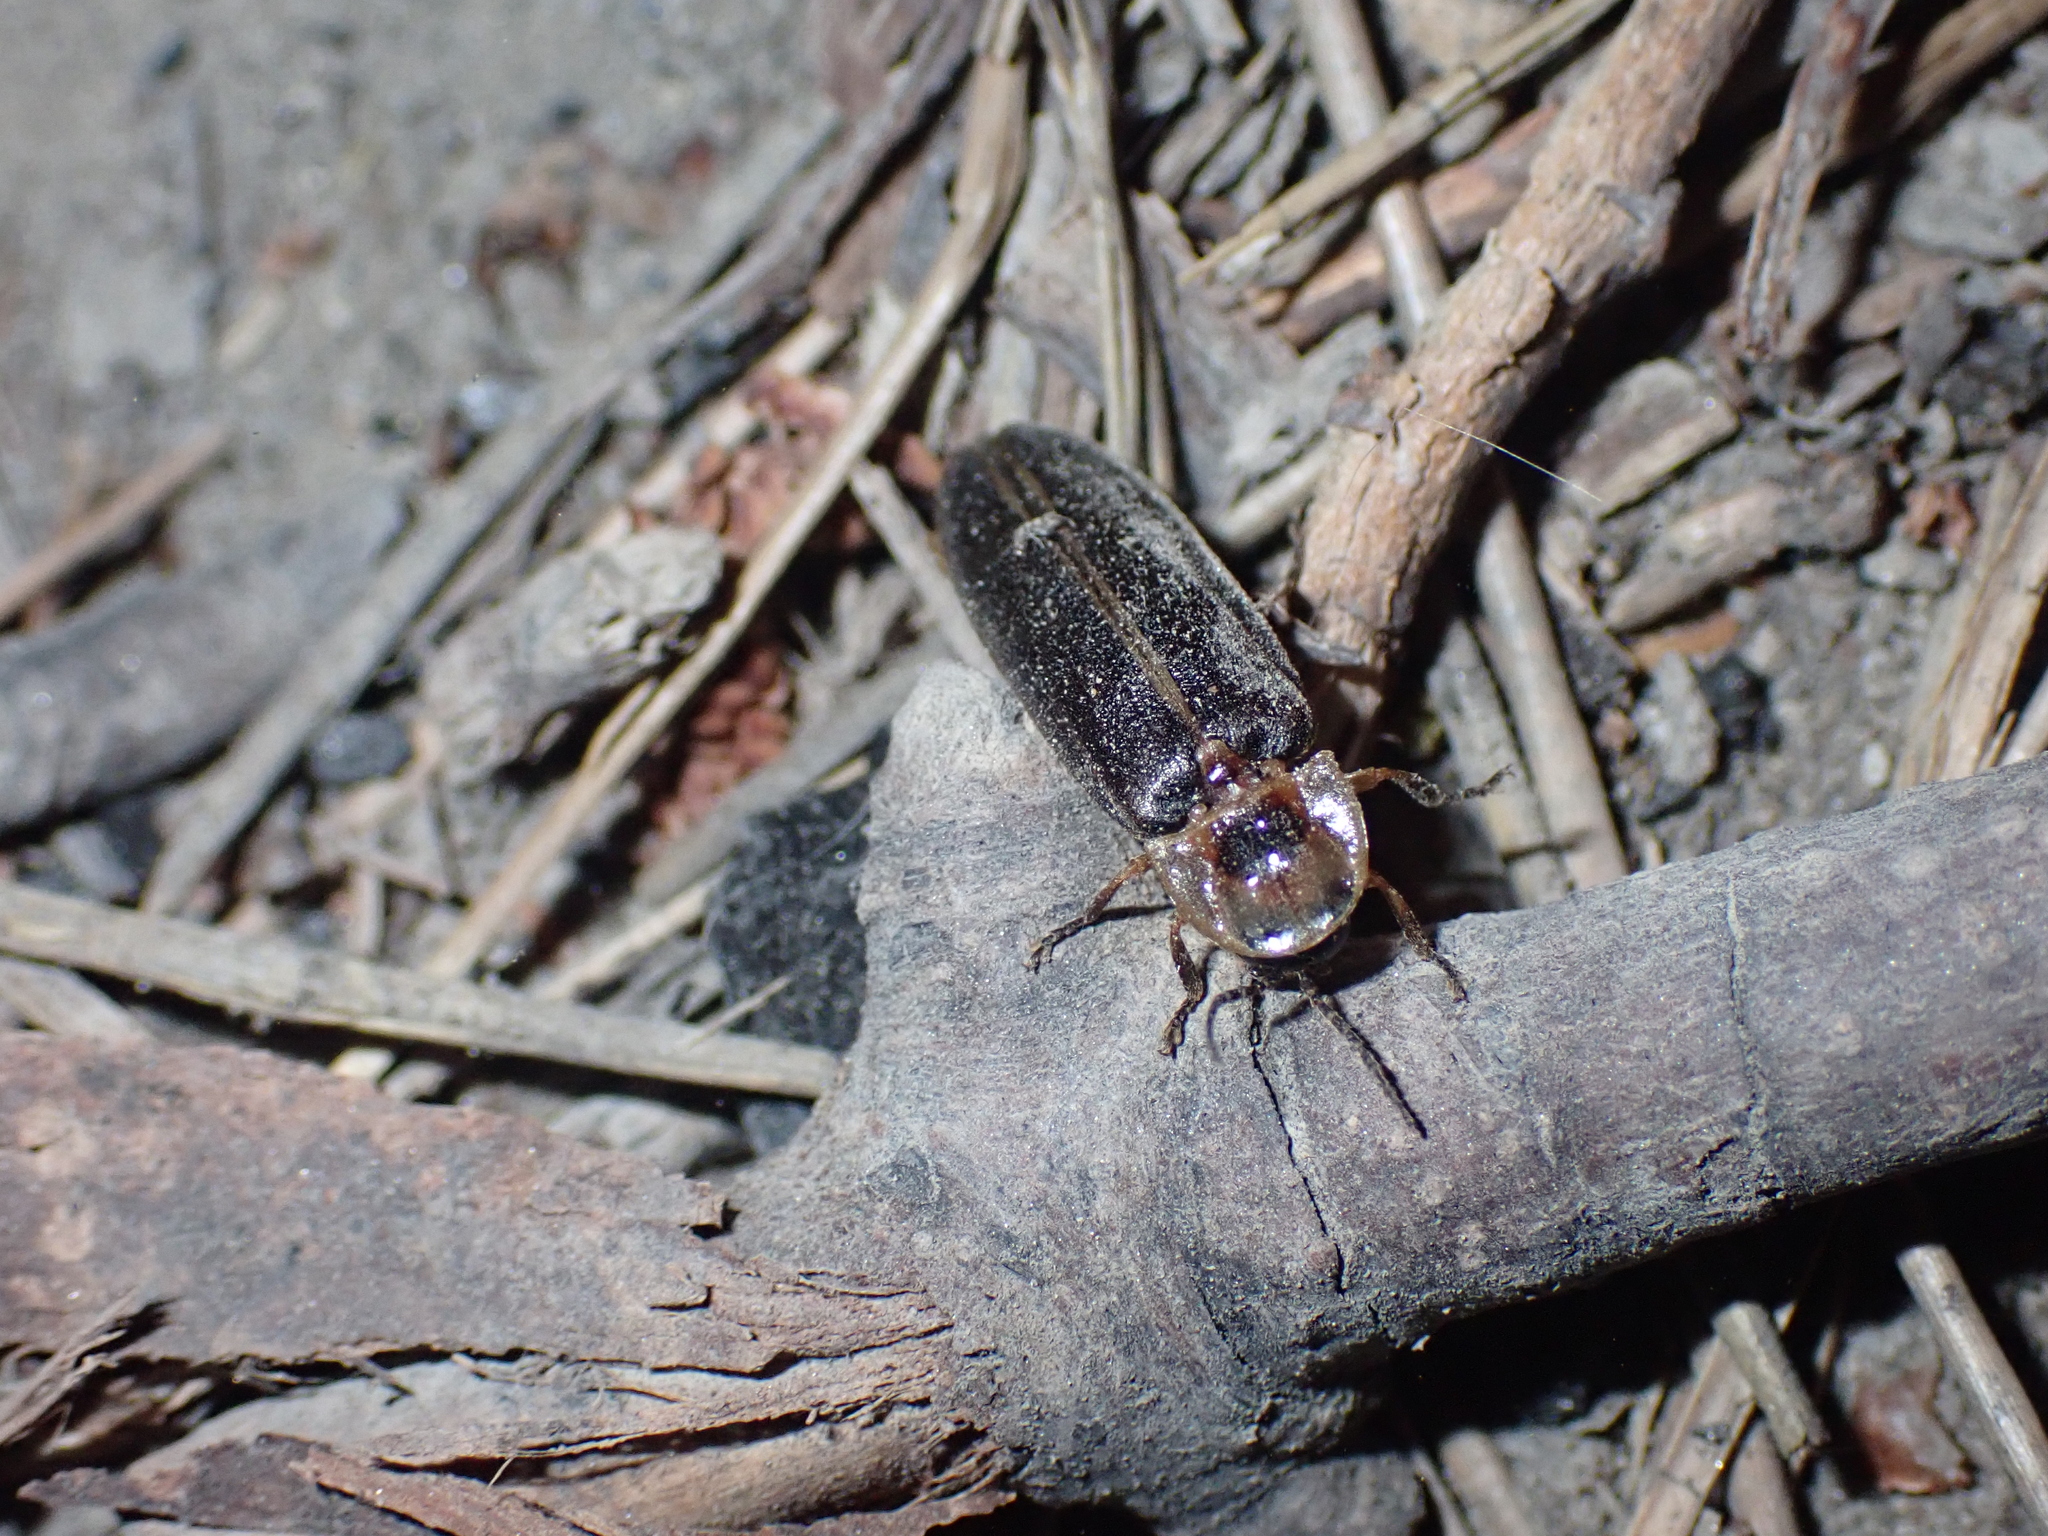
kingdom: Animalia
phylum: Arthropoda
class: Insecta
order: Coleoptera
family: Lampyridae
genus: Lampyris
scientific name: Lampyris raymondi
